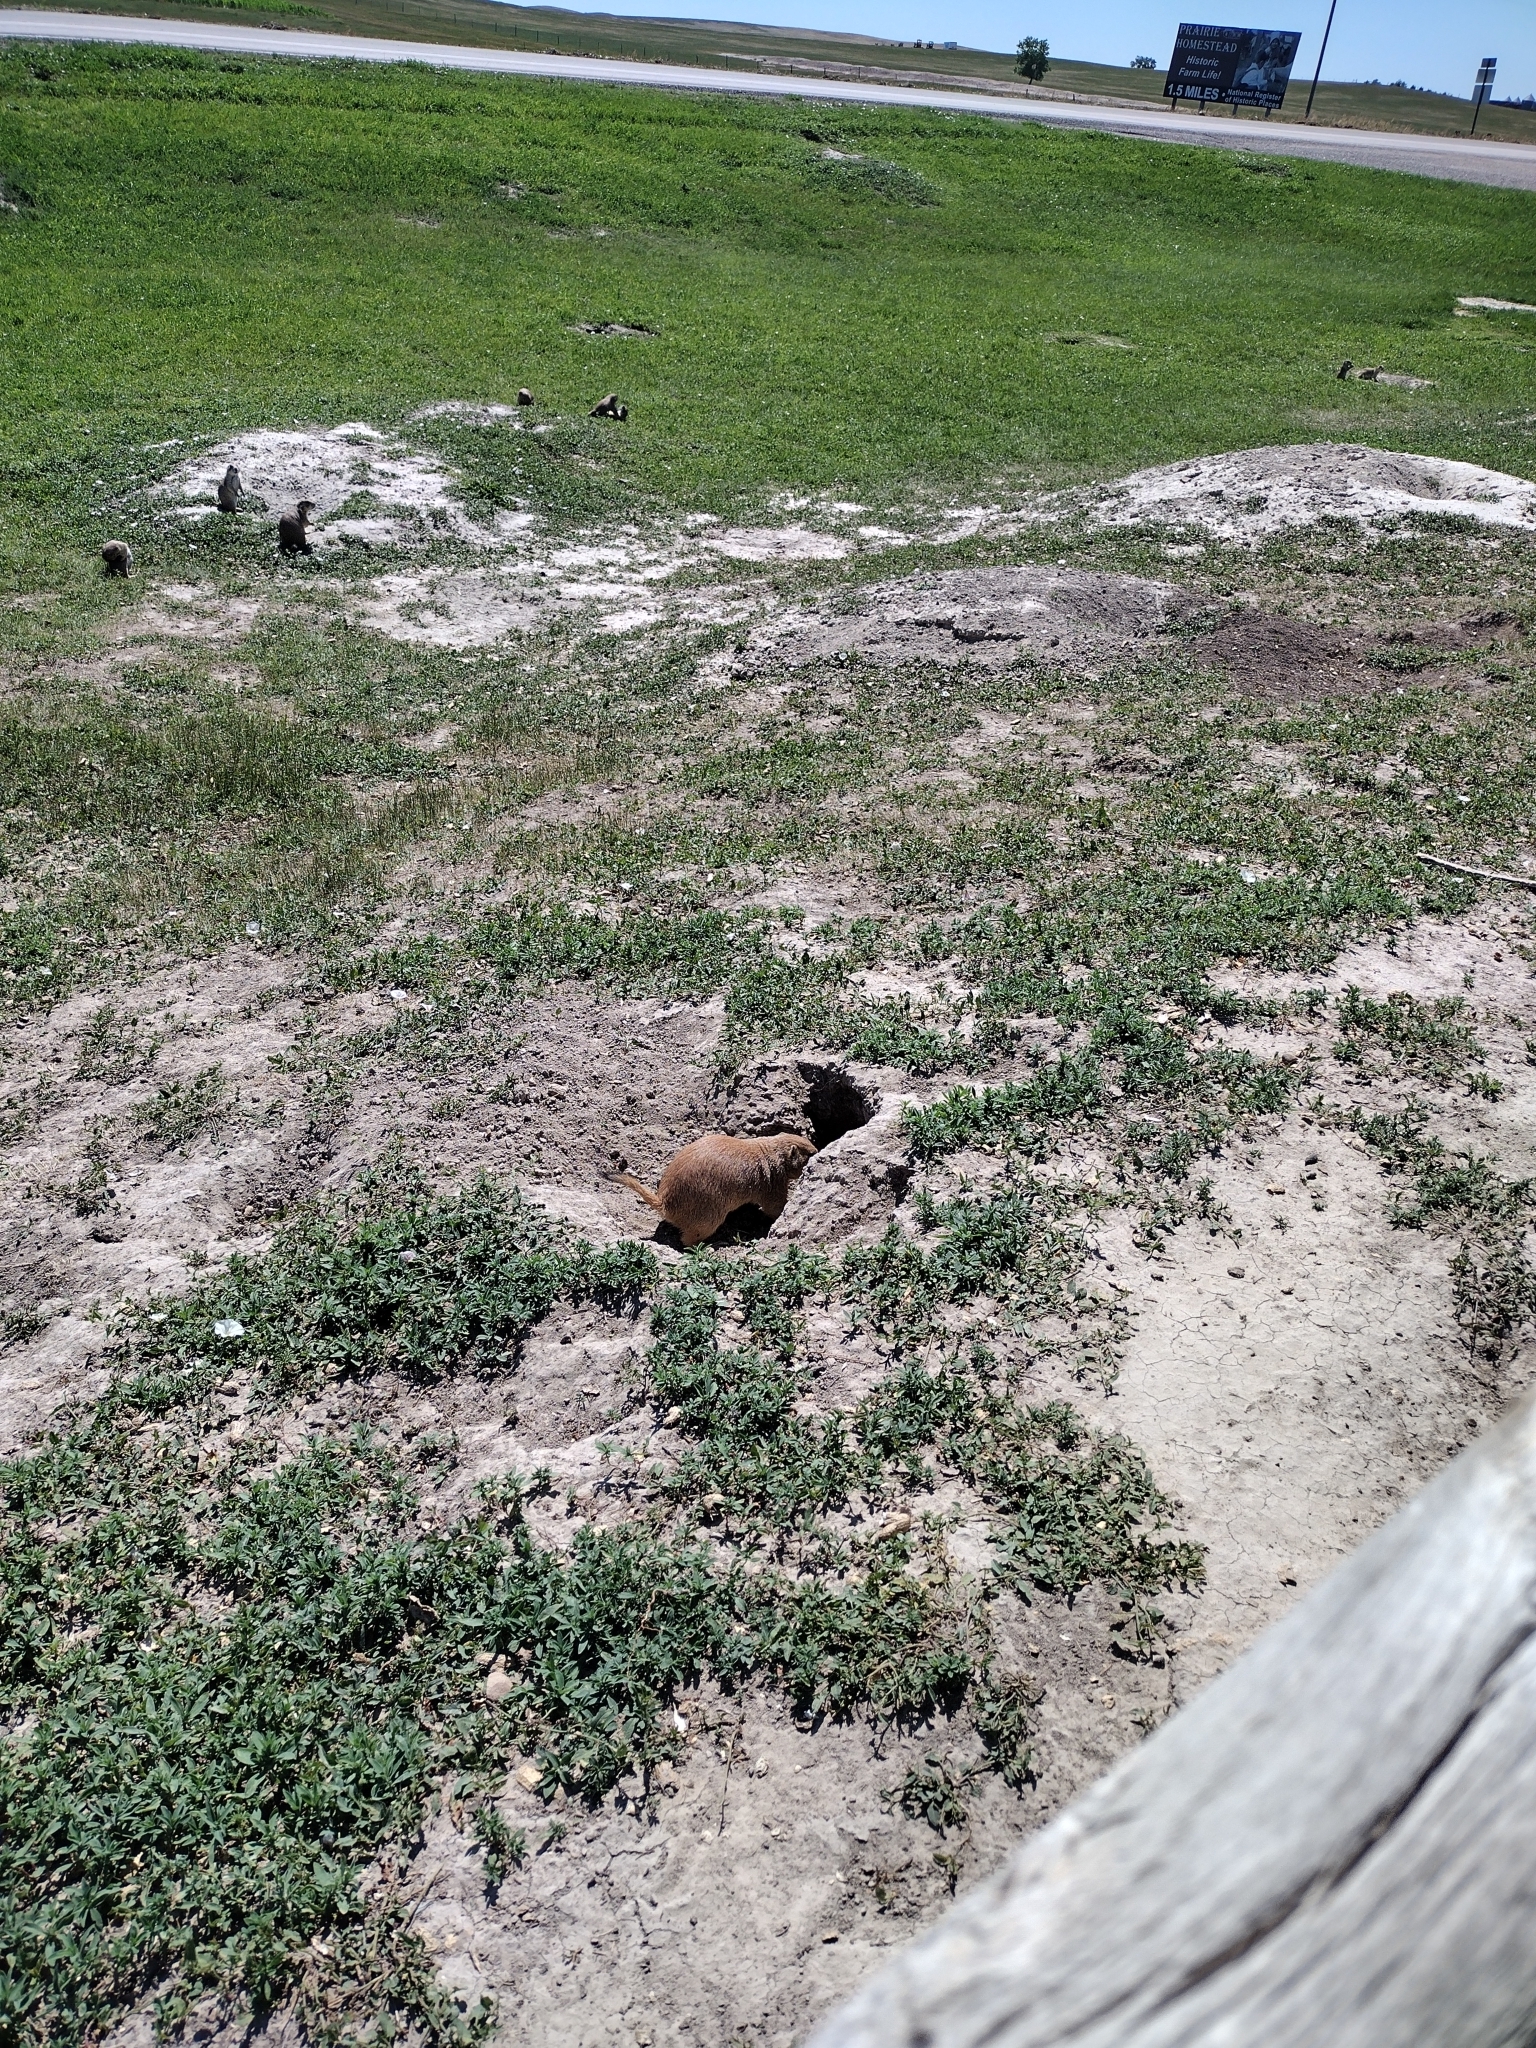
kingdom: Animalia
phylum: Chordata
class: Mammalia
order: Rodentia
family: Sciuridae
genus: Cynomys
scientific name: Cynomys ludovicianus
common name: Black-tailed prairie dog
